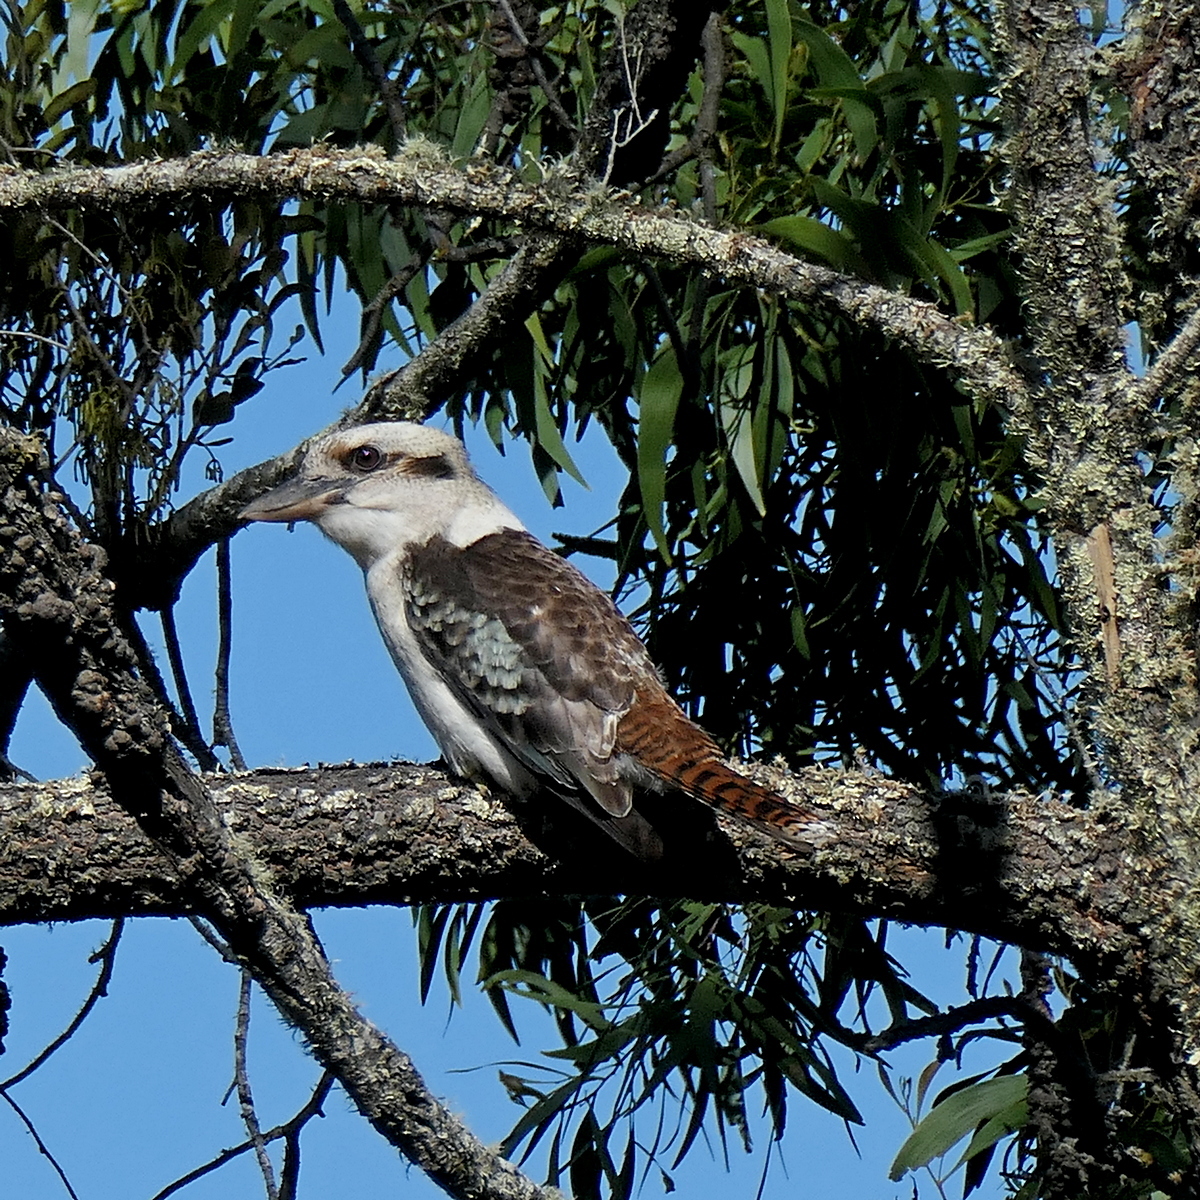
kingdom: Animalia
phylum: Chordata
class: Aves
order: Coraciiformes
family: Alcedinidae
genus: Dacelo
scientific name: Dacelo novaeguineae
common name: Laughing kookaburra
